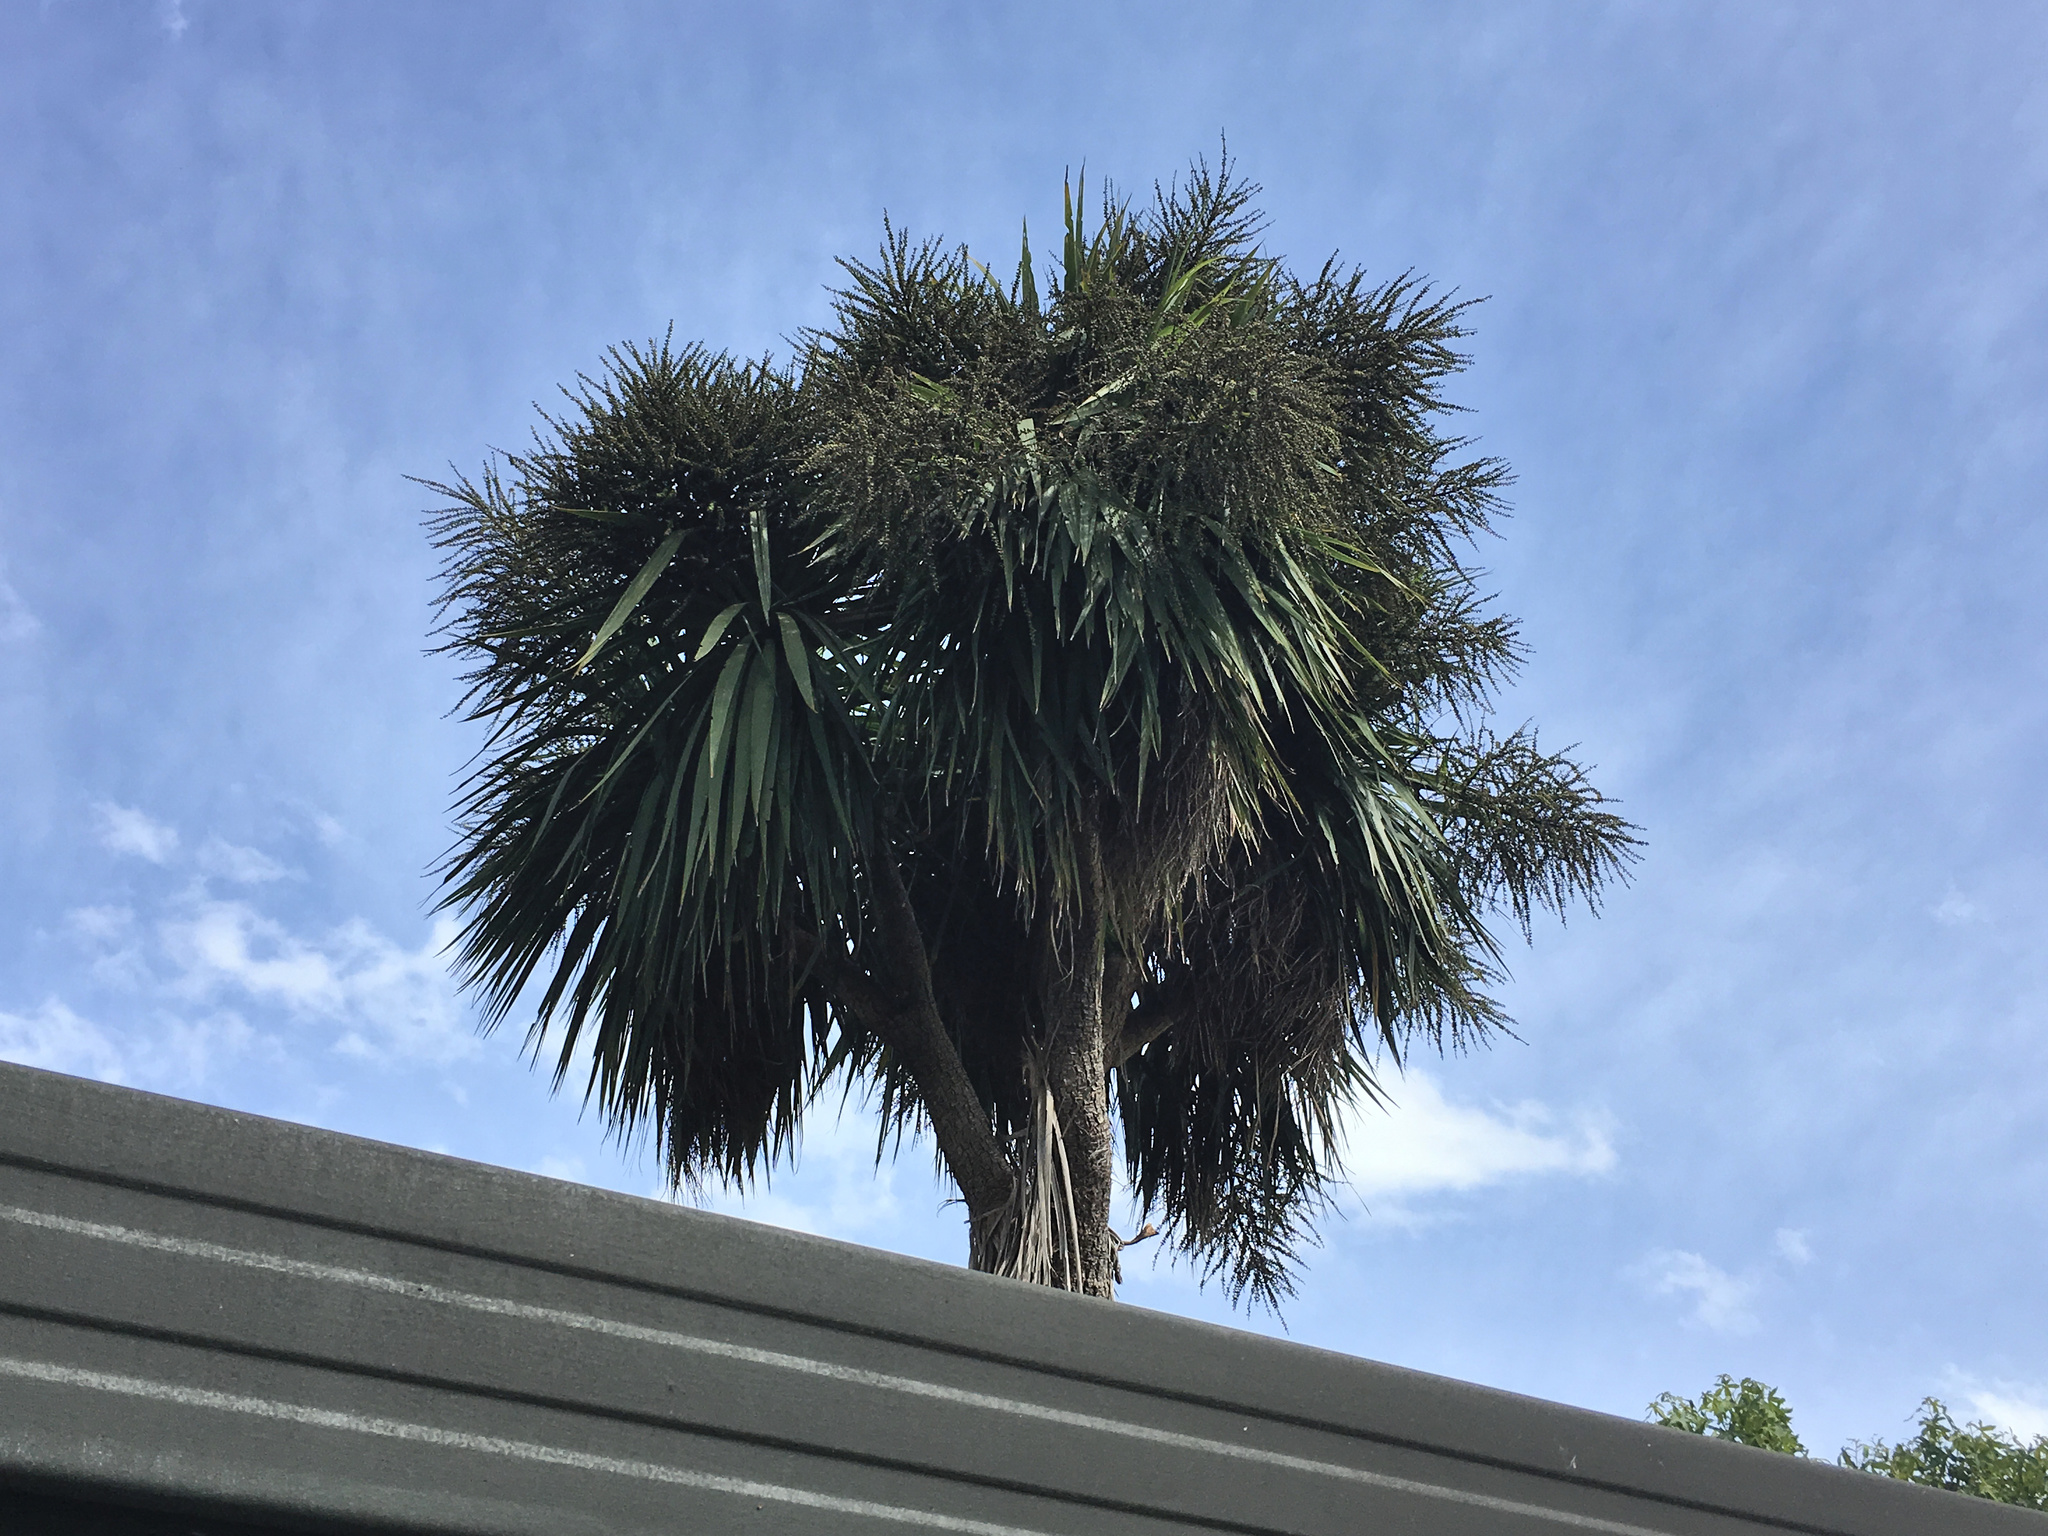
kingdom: Plantae
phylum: Tracheophyta
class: Liliopsida
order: Asparagales
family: Asparagaceae
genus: Cordyline
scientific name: Cordyline australis
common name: Cabbage-palm
